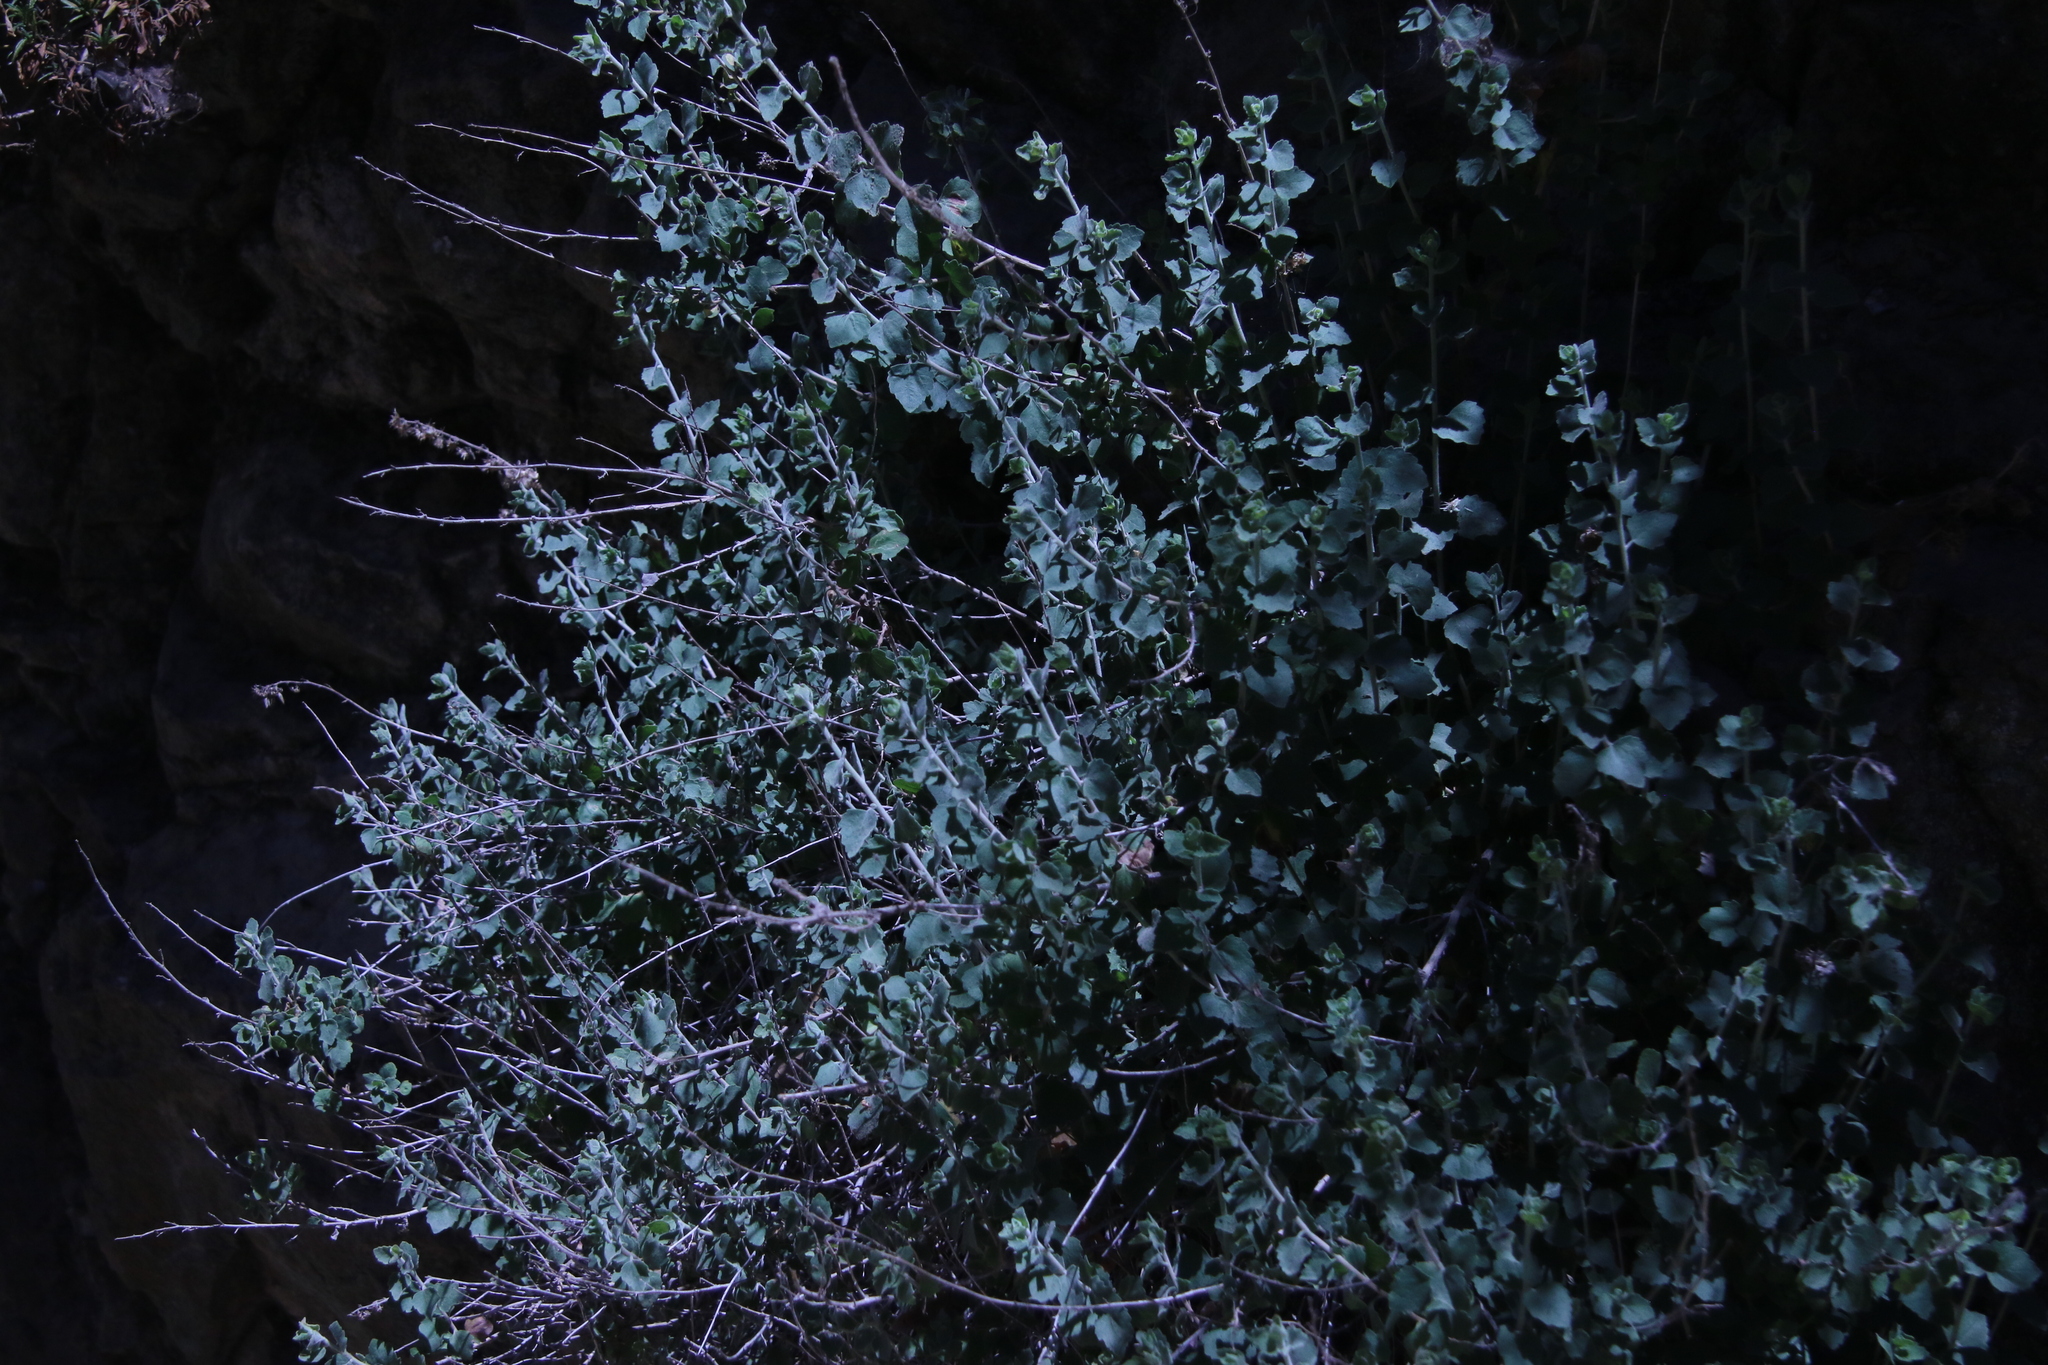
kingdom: Plantae
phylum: Tracheophyta
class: Magnoliopsida
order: Asterales
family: Asteraceae
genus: Brickellia
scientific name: Brickellia californica
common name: California brickellbush
